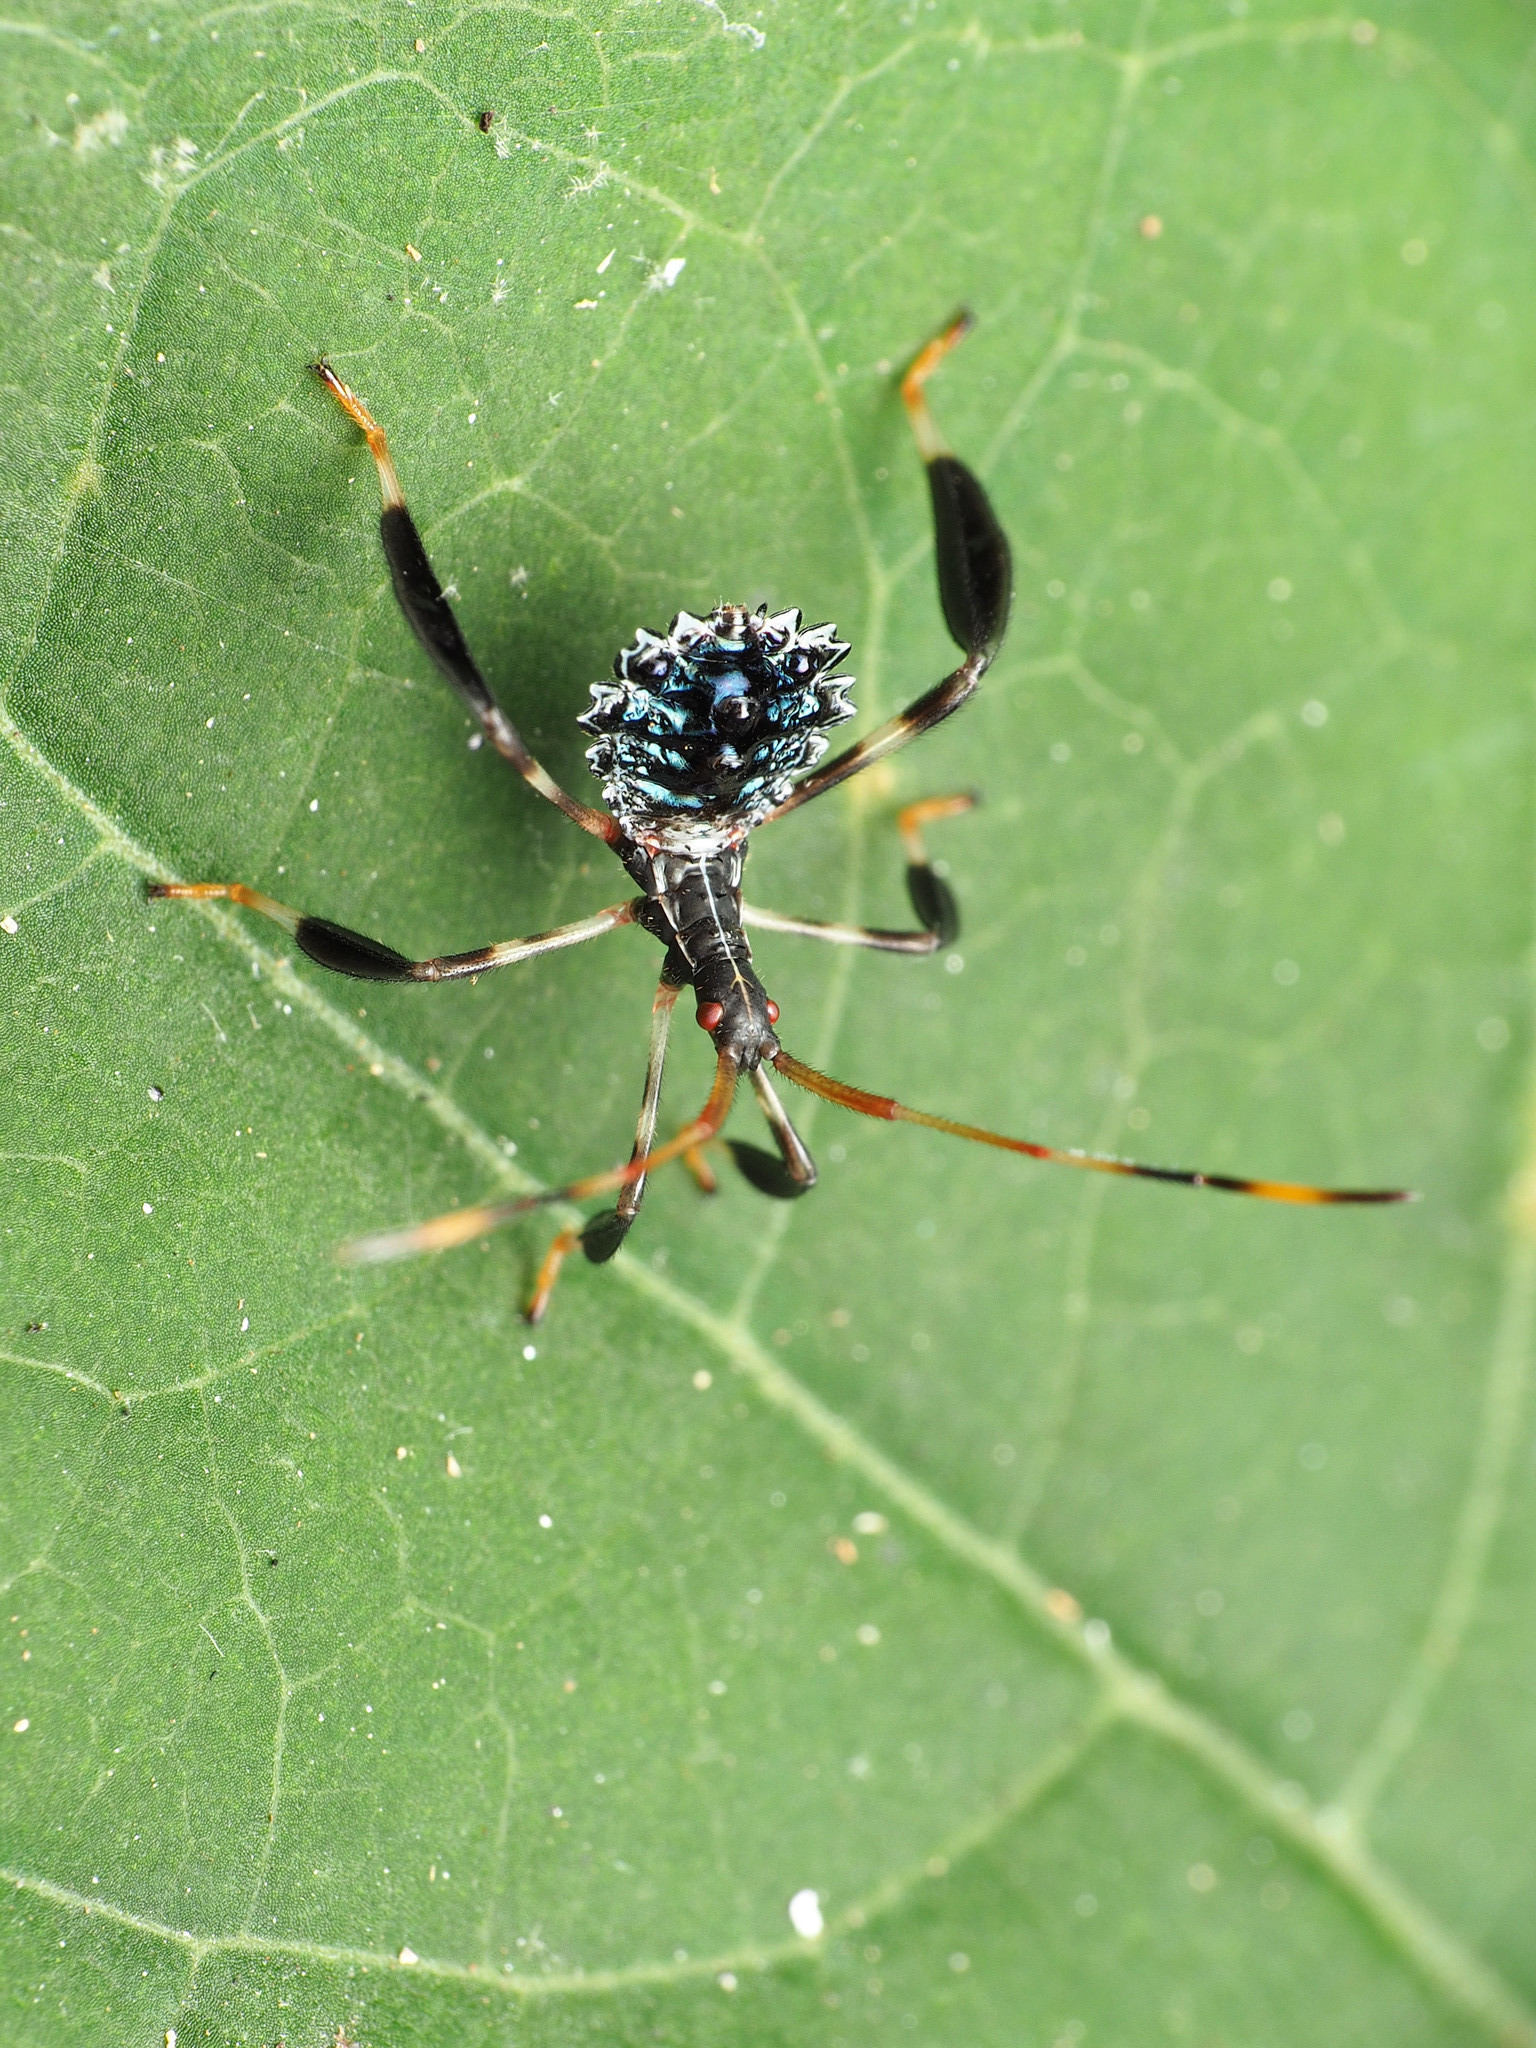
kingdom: Animalia
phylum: Arthropoda
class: Insecta
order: Hemiptera
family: Coreidae
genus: Acanthocephala
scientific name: Acanthocephala terminalis
